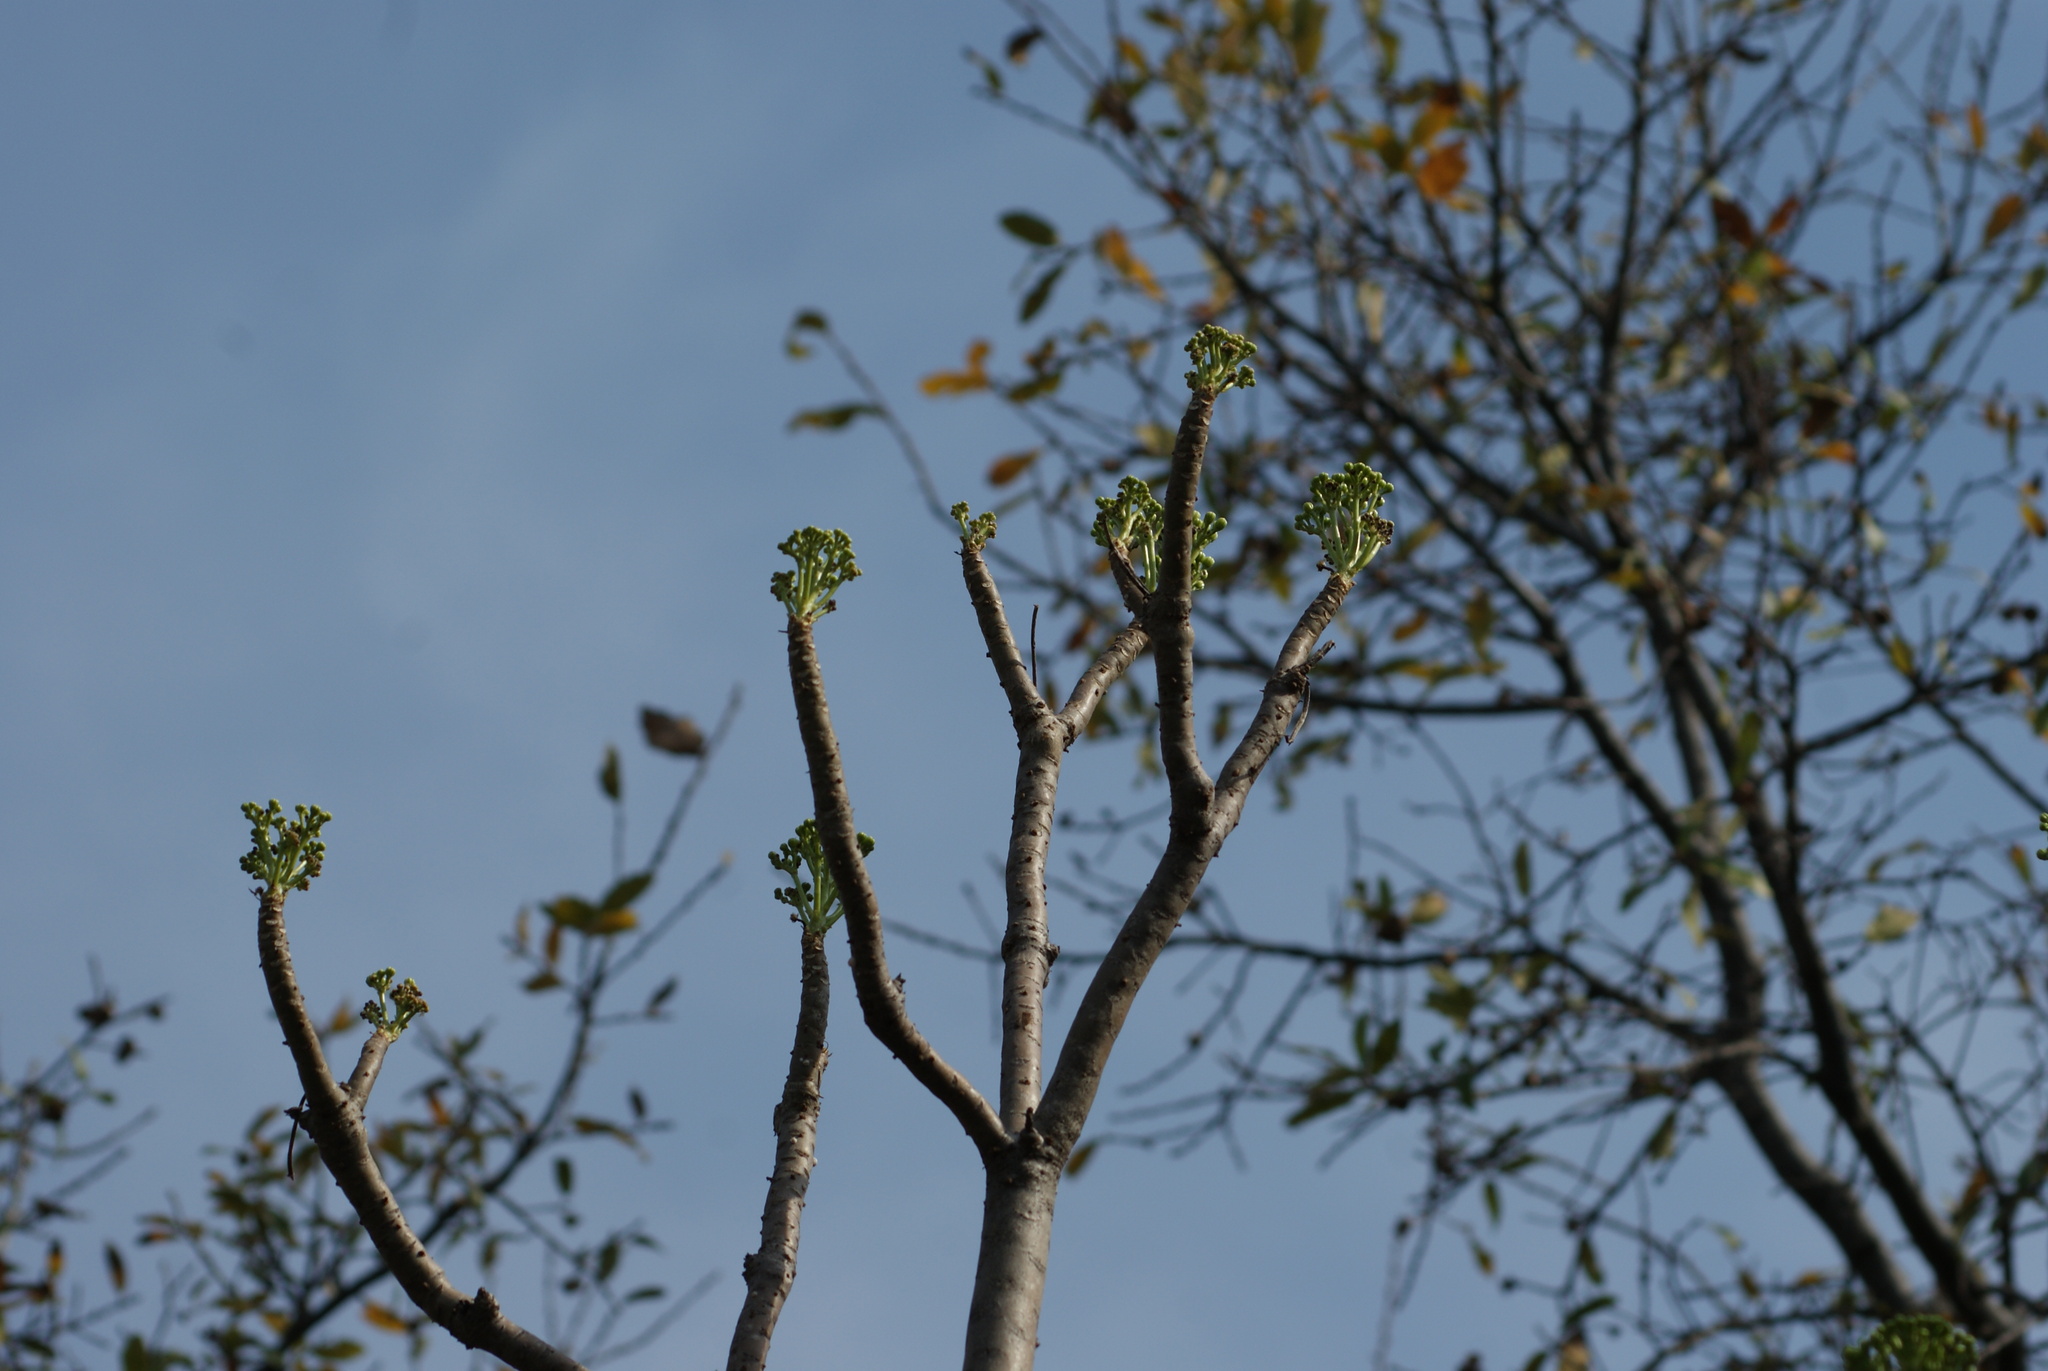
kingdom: Plantae
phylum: Tracheophyta
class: Magnoliopsida
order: Asterales
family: Asteraceae
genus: Pittocaulon
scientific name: Pittocaulon praecox
